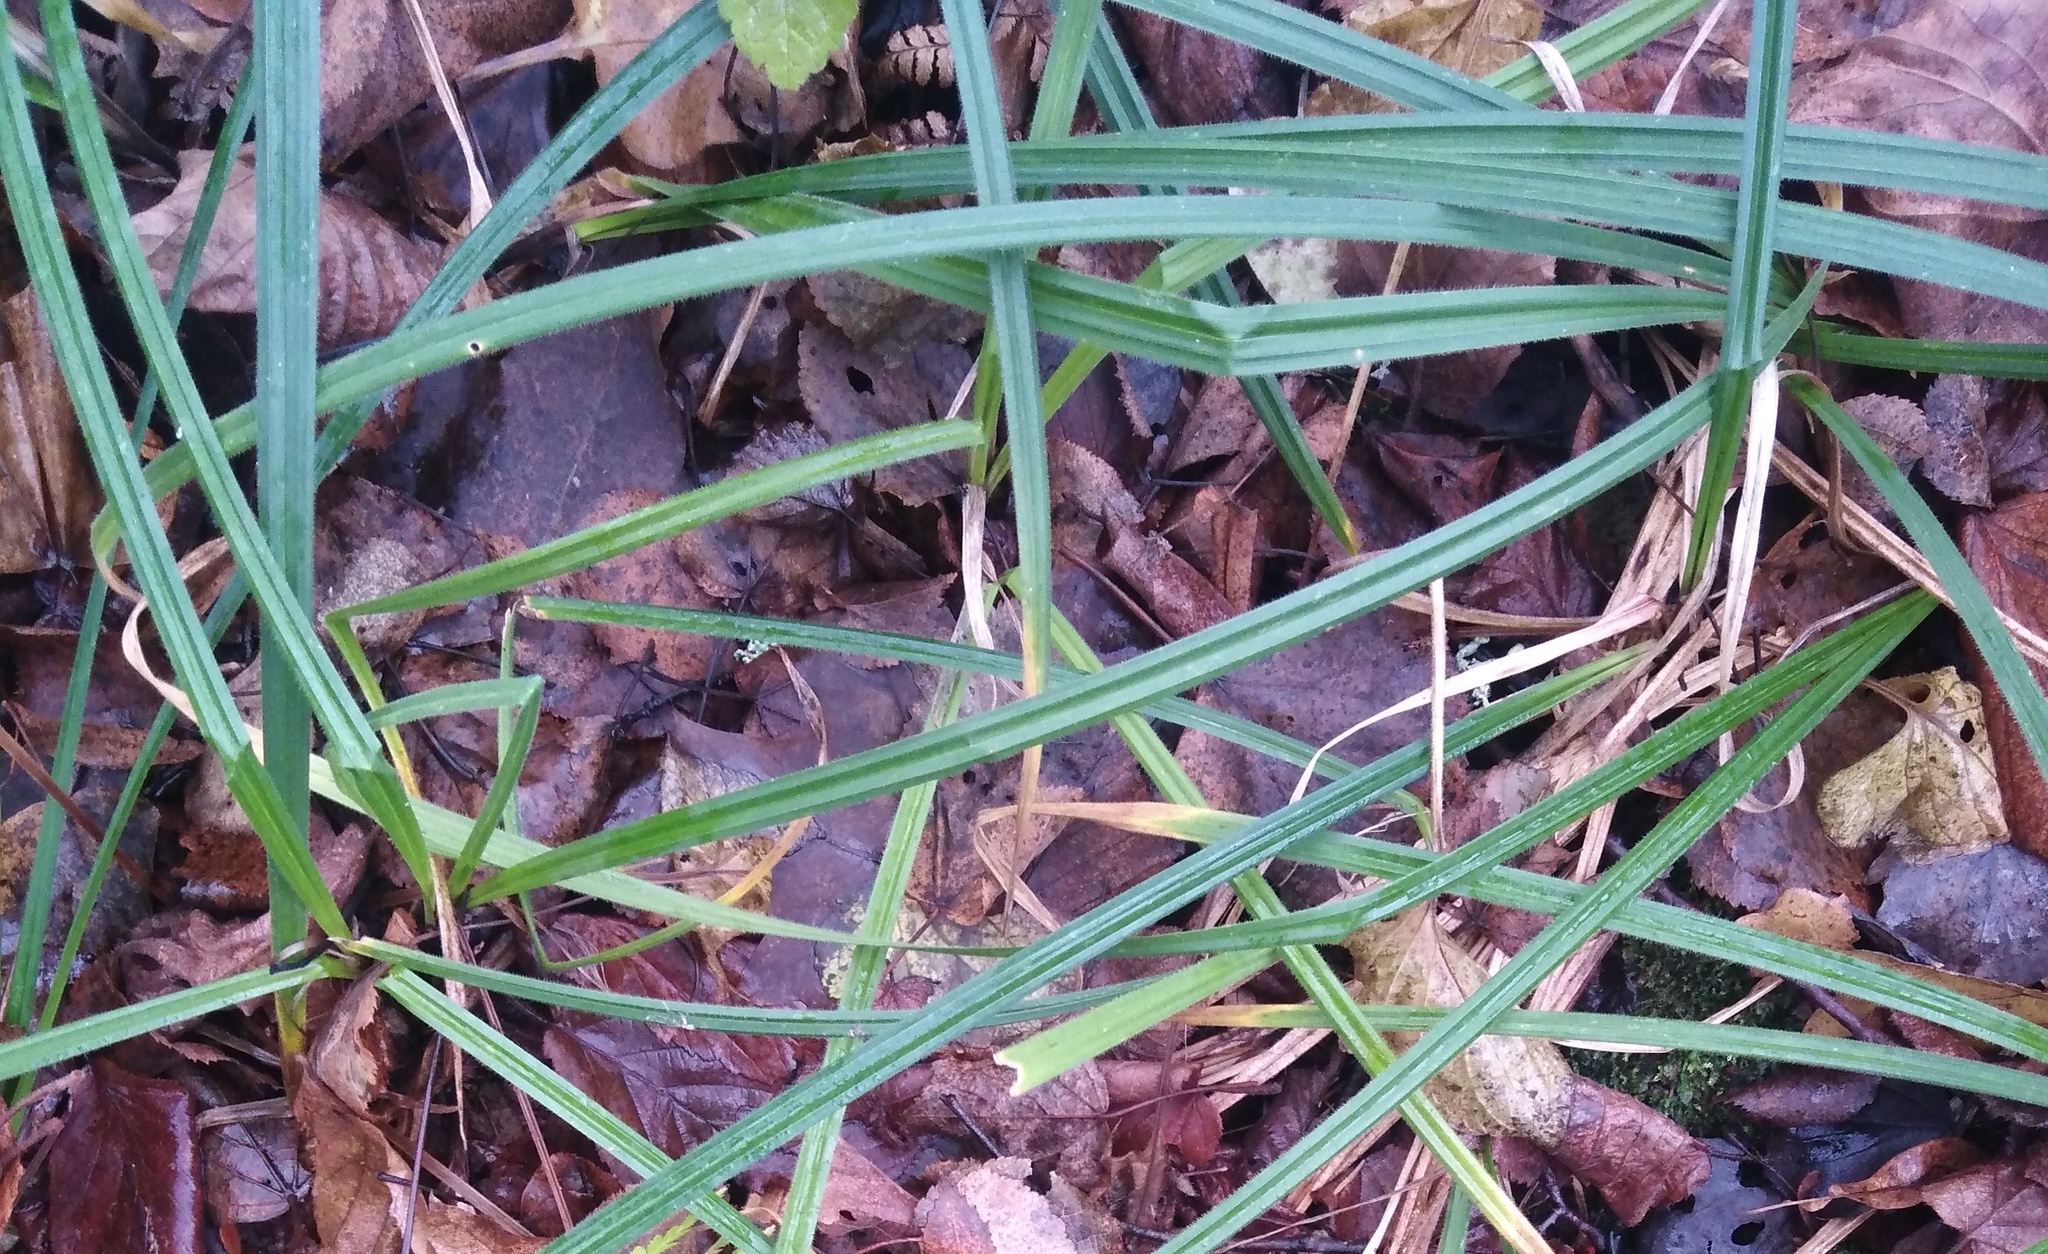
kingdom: Plantae
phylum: Tracheophyta
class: Liliopsida
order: Poales
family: Cyperaceae
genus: Carex
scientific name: Carex pilosa
